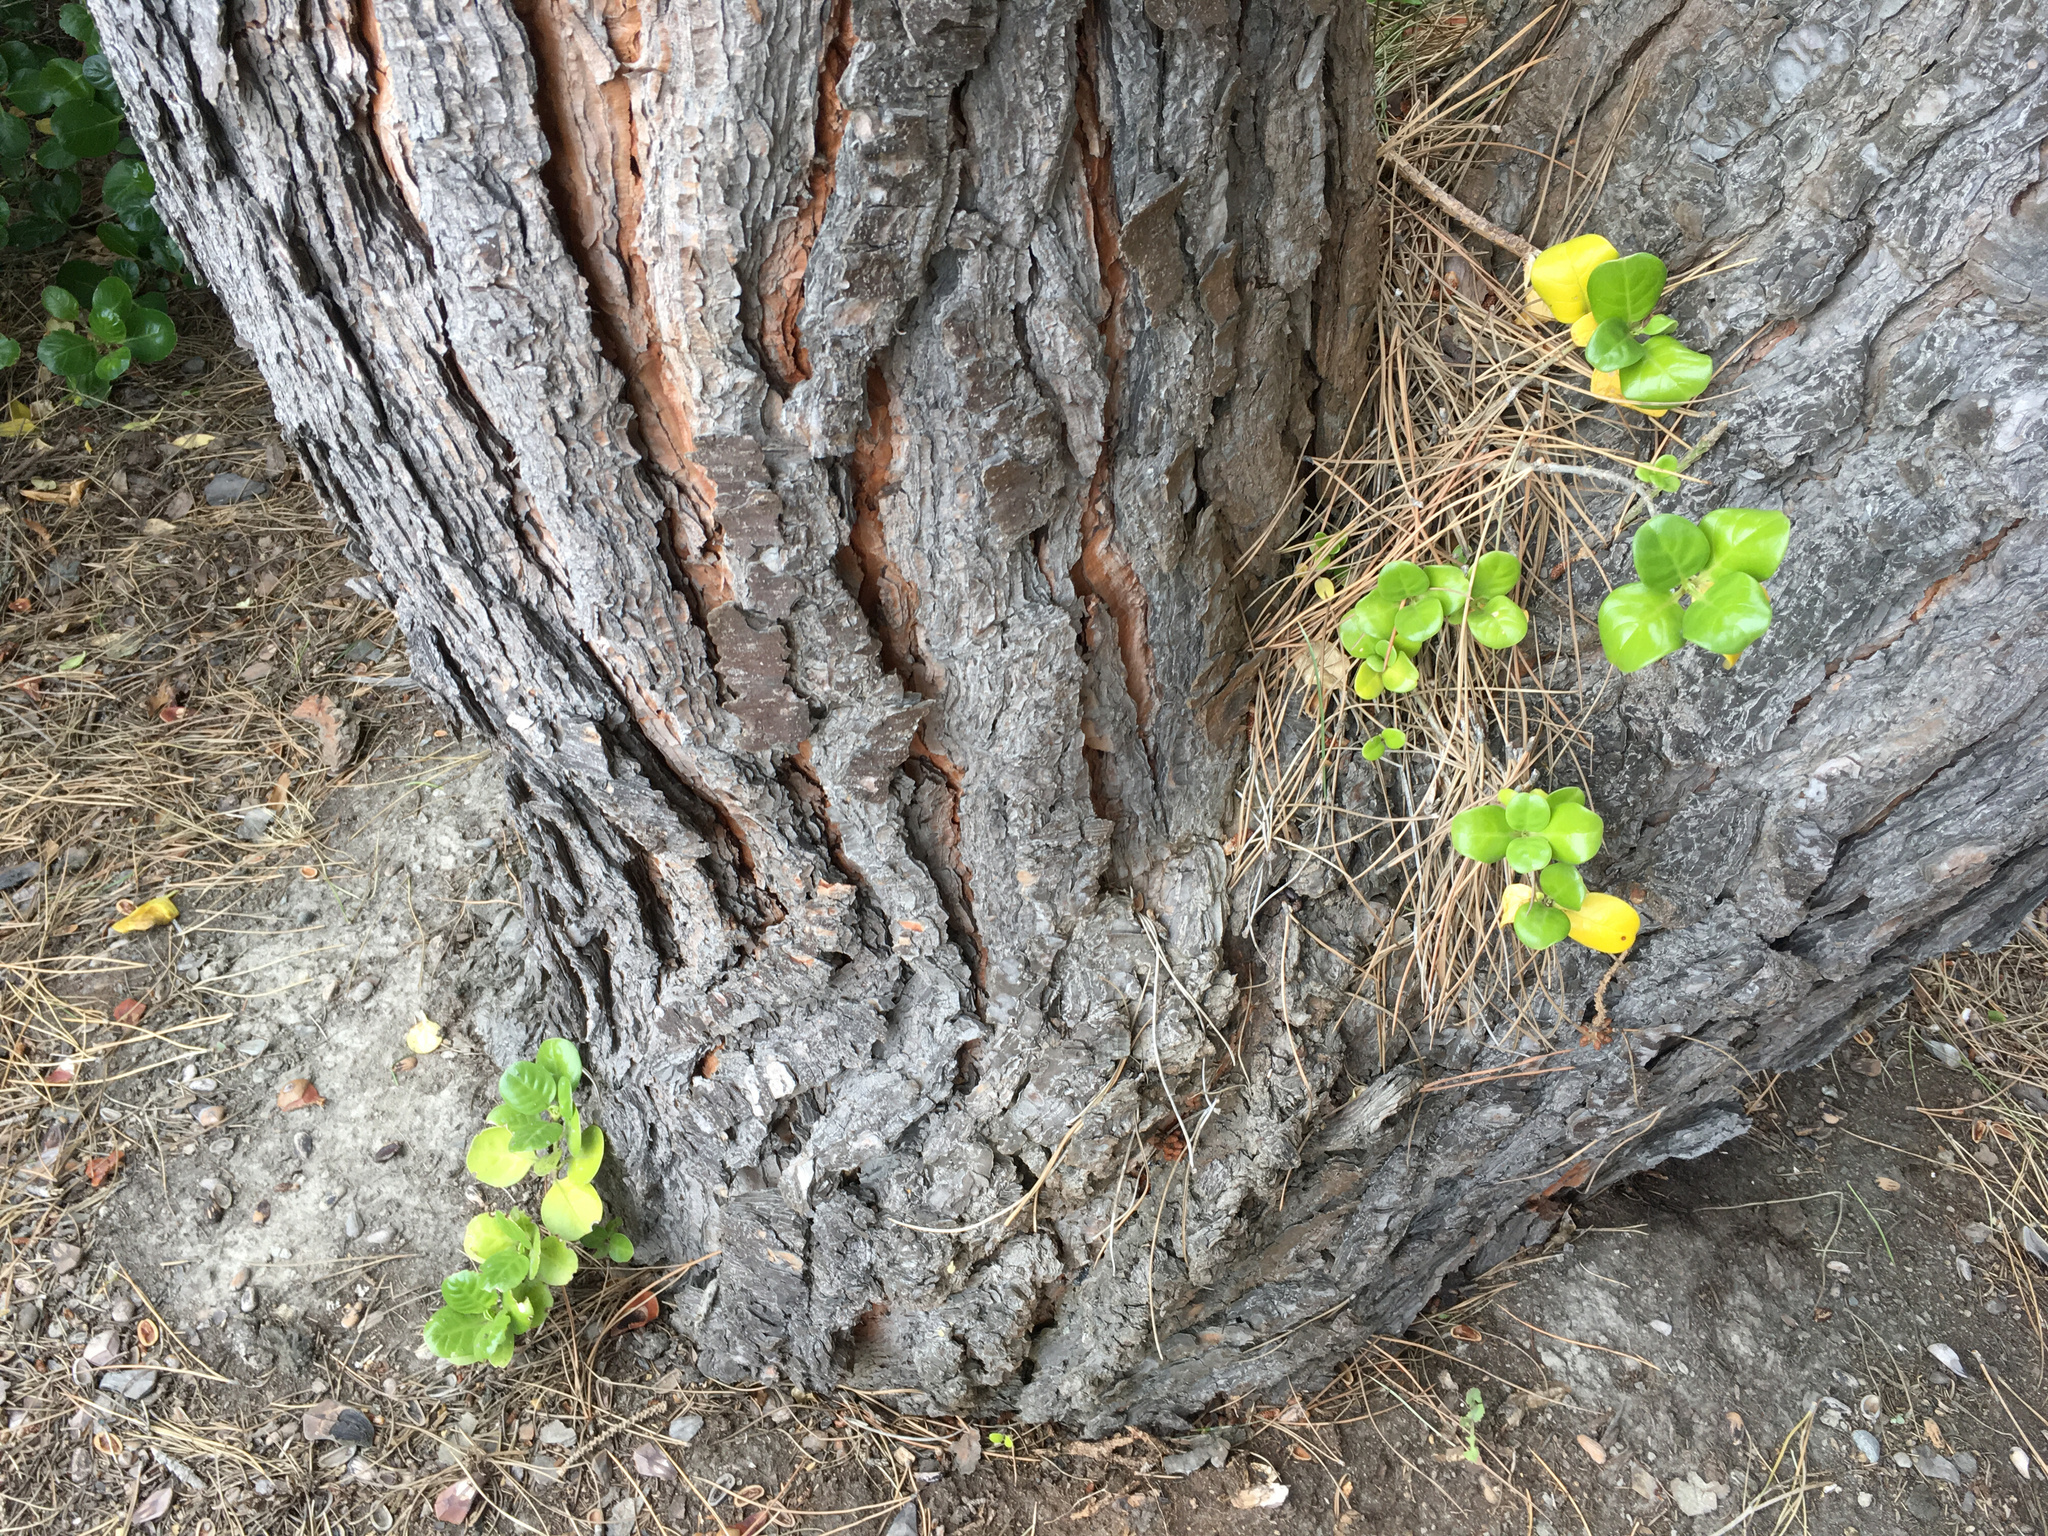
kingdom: Plantae
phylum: Tracheophyta
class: Magnoliopsida
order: Gentianales
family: Rubiaceae
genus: Coprosma
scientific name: Coprosma repens
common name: Tree bedstraw
